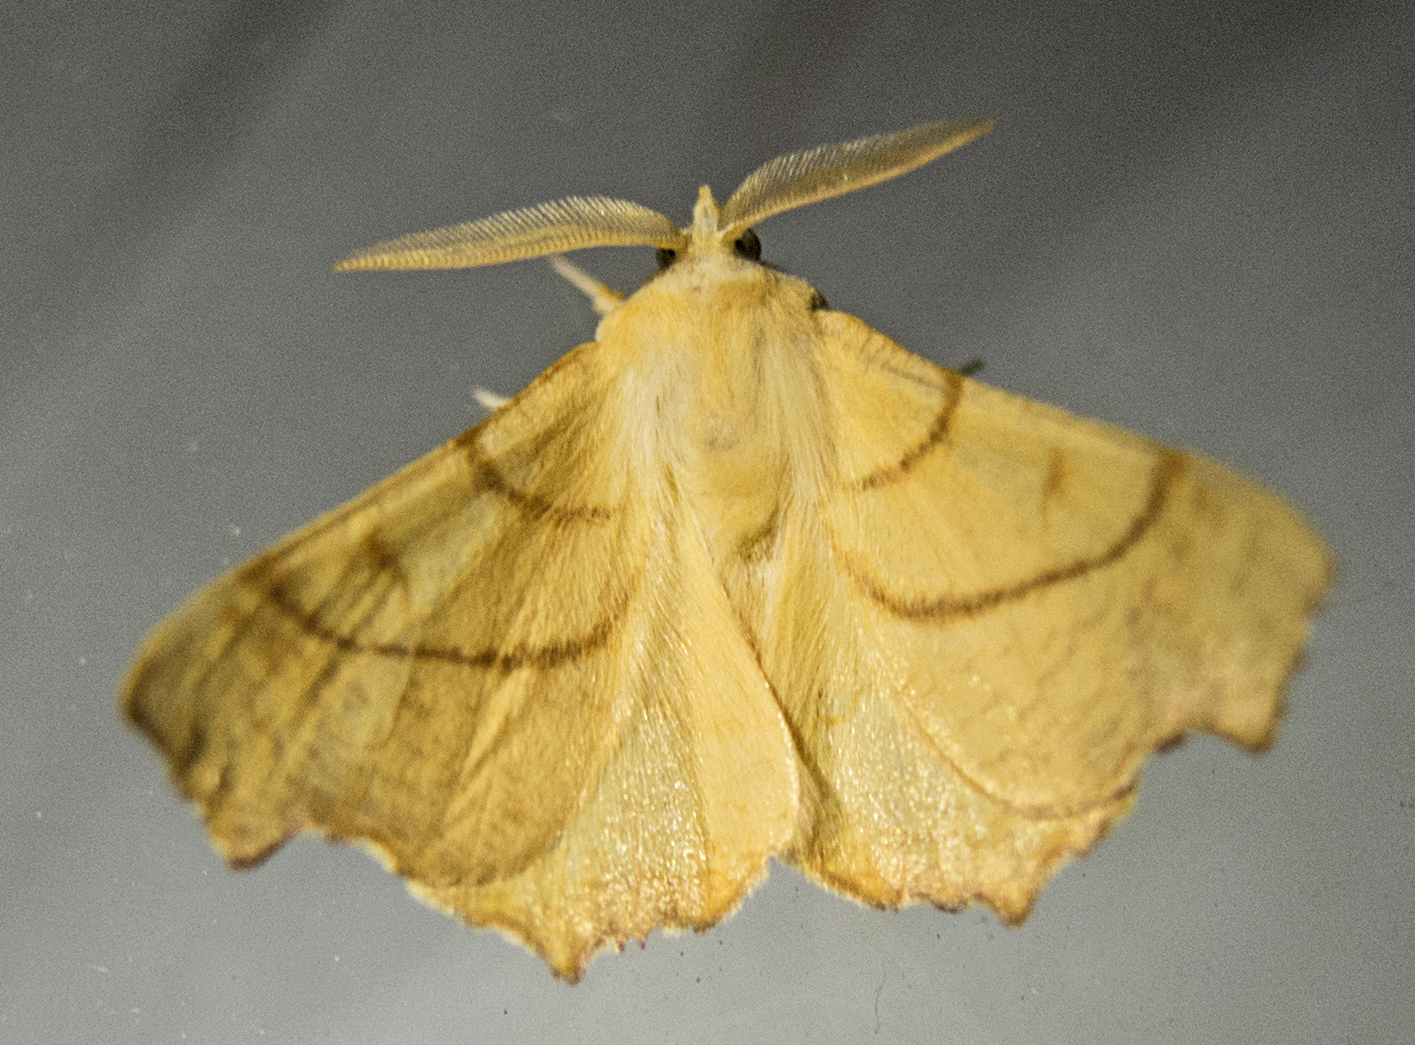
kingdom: Animalia
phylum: Arthropoda
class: Insecta
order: Lepidoptera
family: Geometridae
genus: Ennomos
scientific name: Ennomos fuscantaria
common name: Dusky thorn
